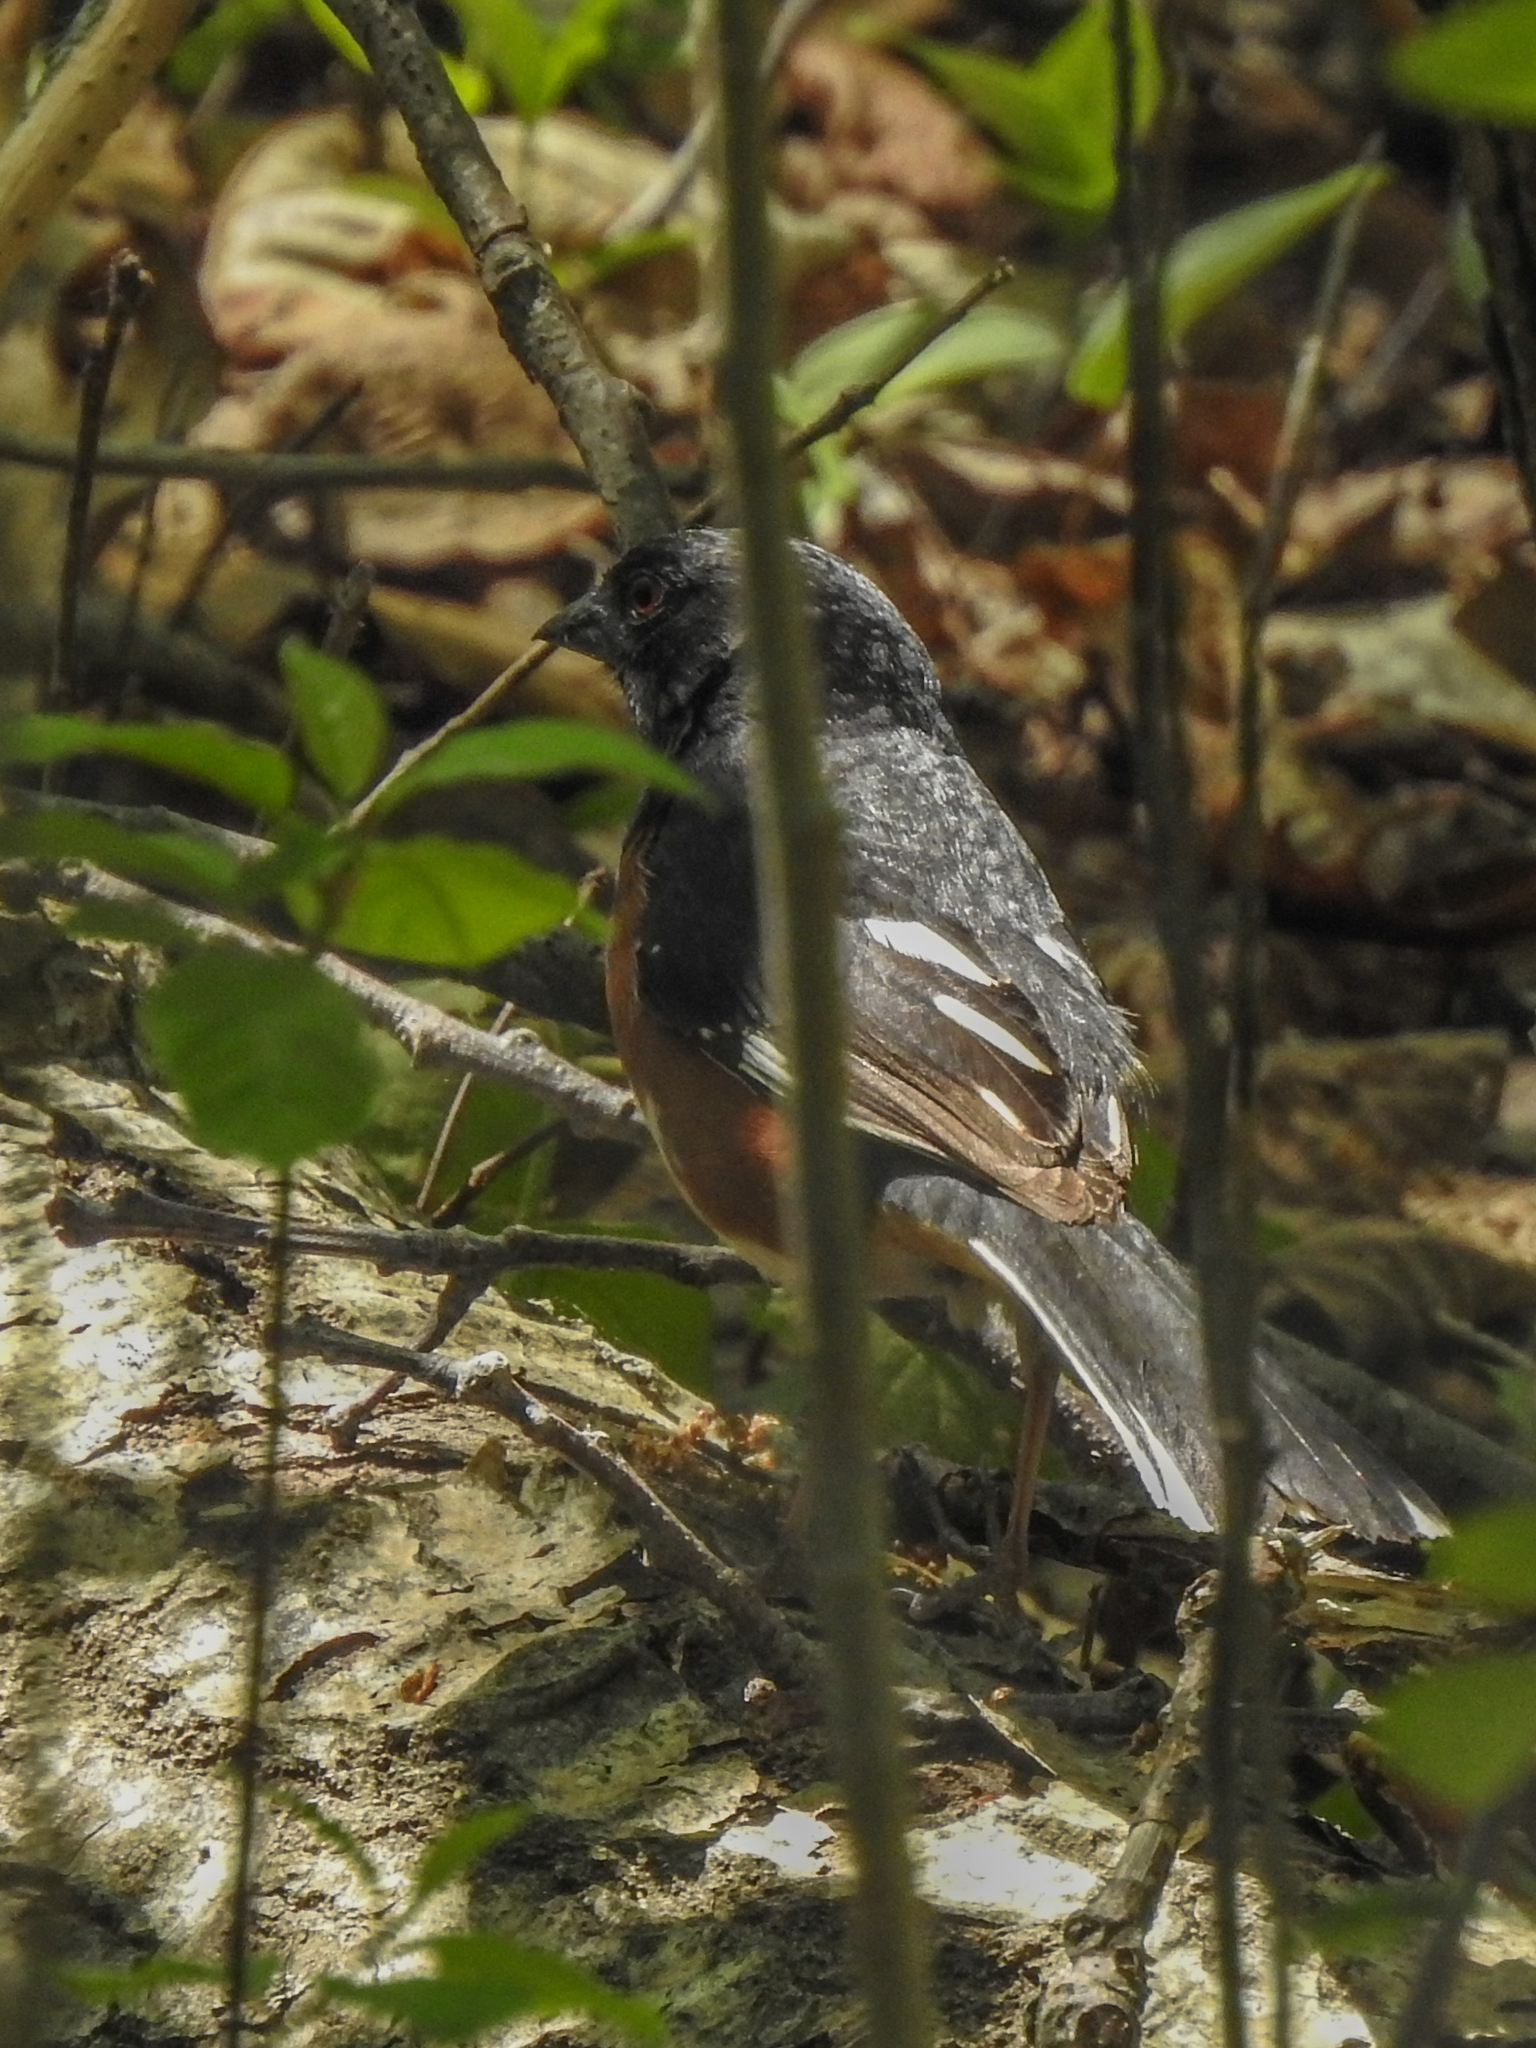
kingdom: Animalia
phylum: Chordata
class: Aves
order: Passeriformes
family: Passerellidae
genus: Pipilo
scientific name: Pipilo erythrophthalmus
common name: Eastern towhee
